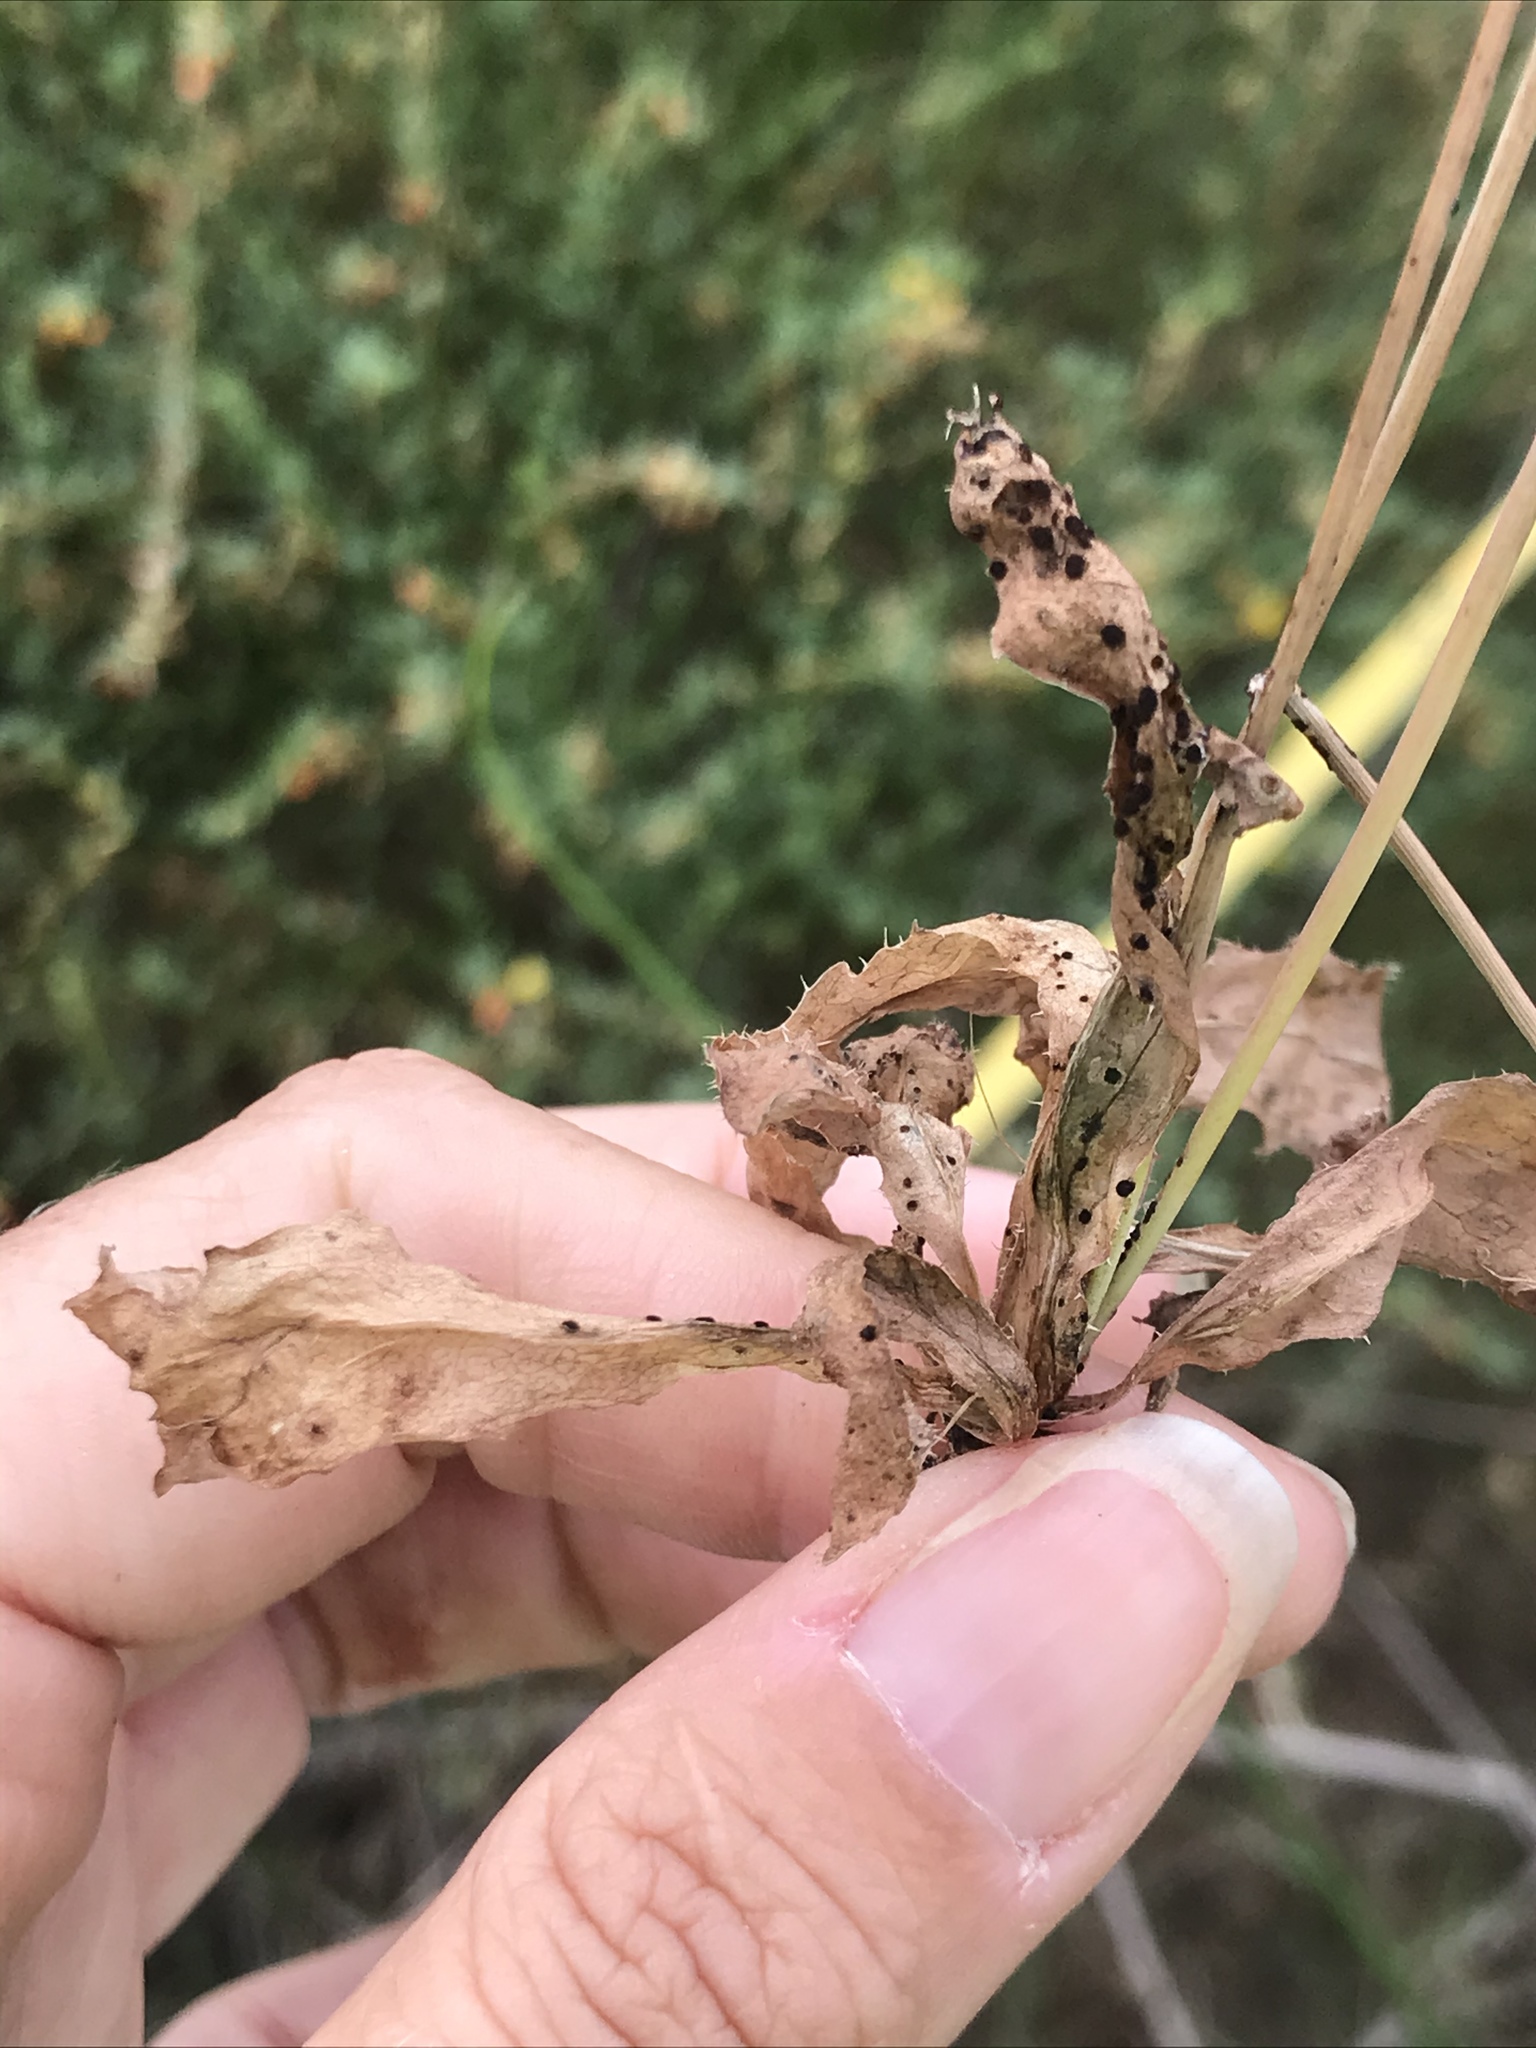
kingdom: Plantae
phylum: Tracheophyta
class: Magnoliopsida
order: Asterales
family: Asteraceae
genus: Hypochaeris
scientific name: Hypochaeris glabra
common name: Smooth catsear
